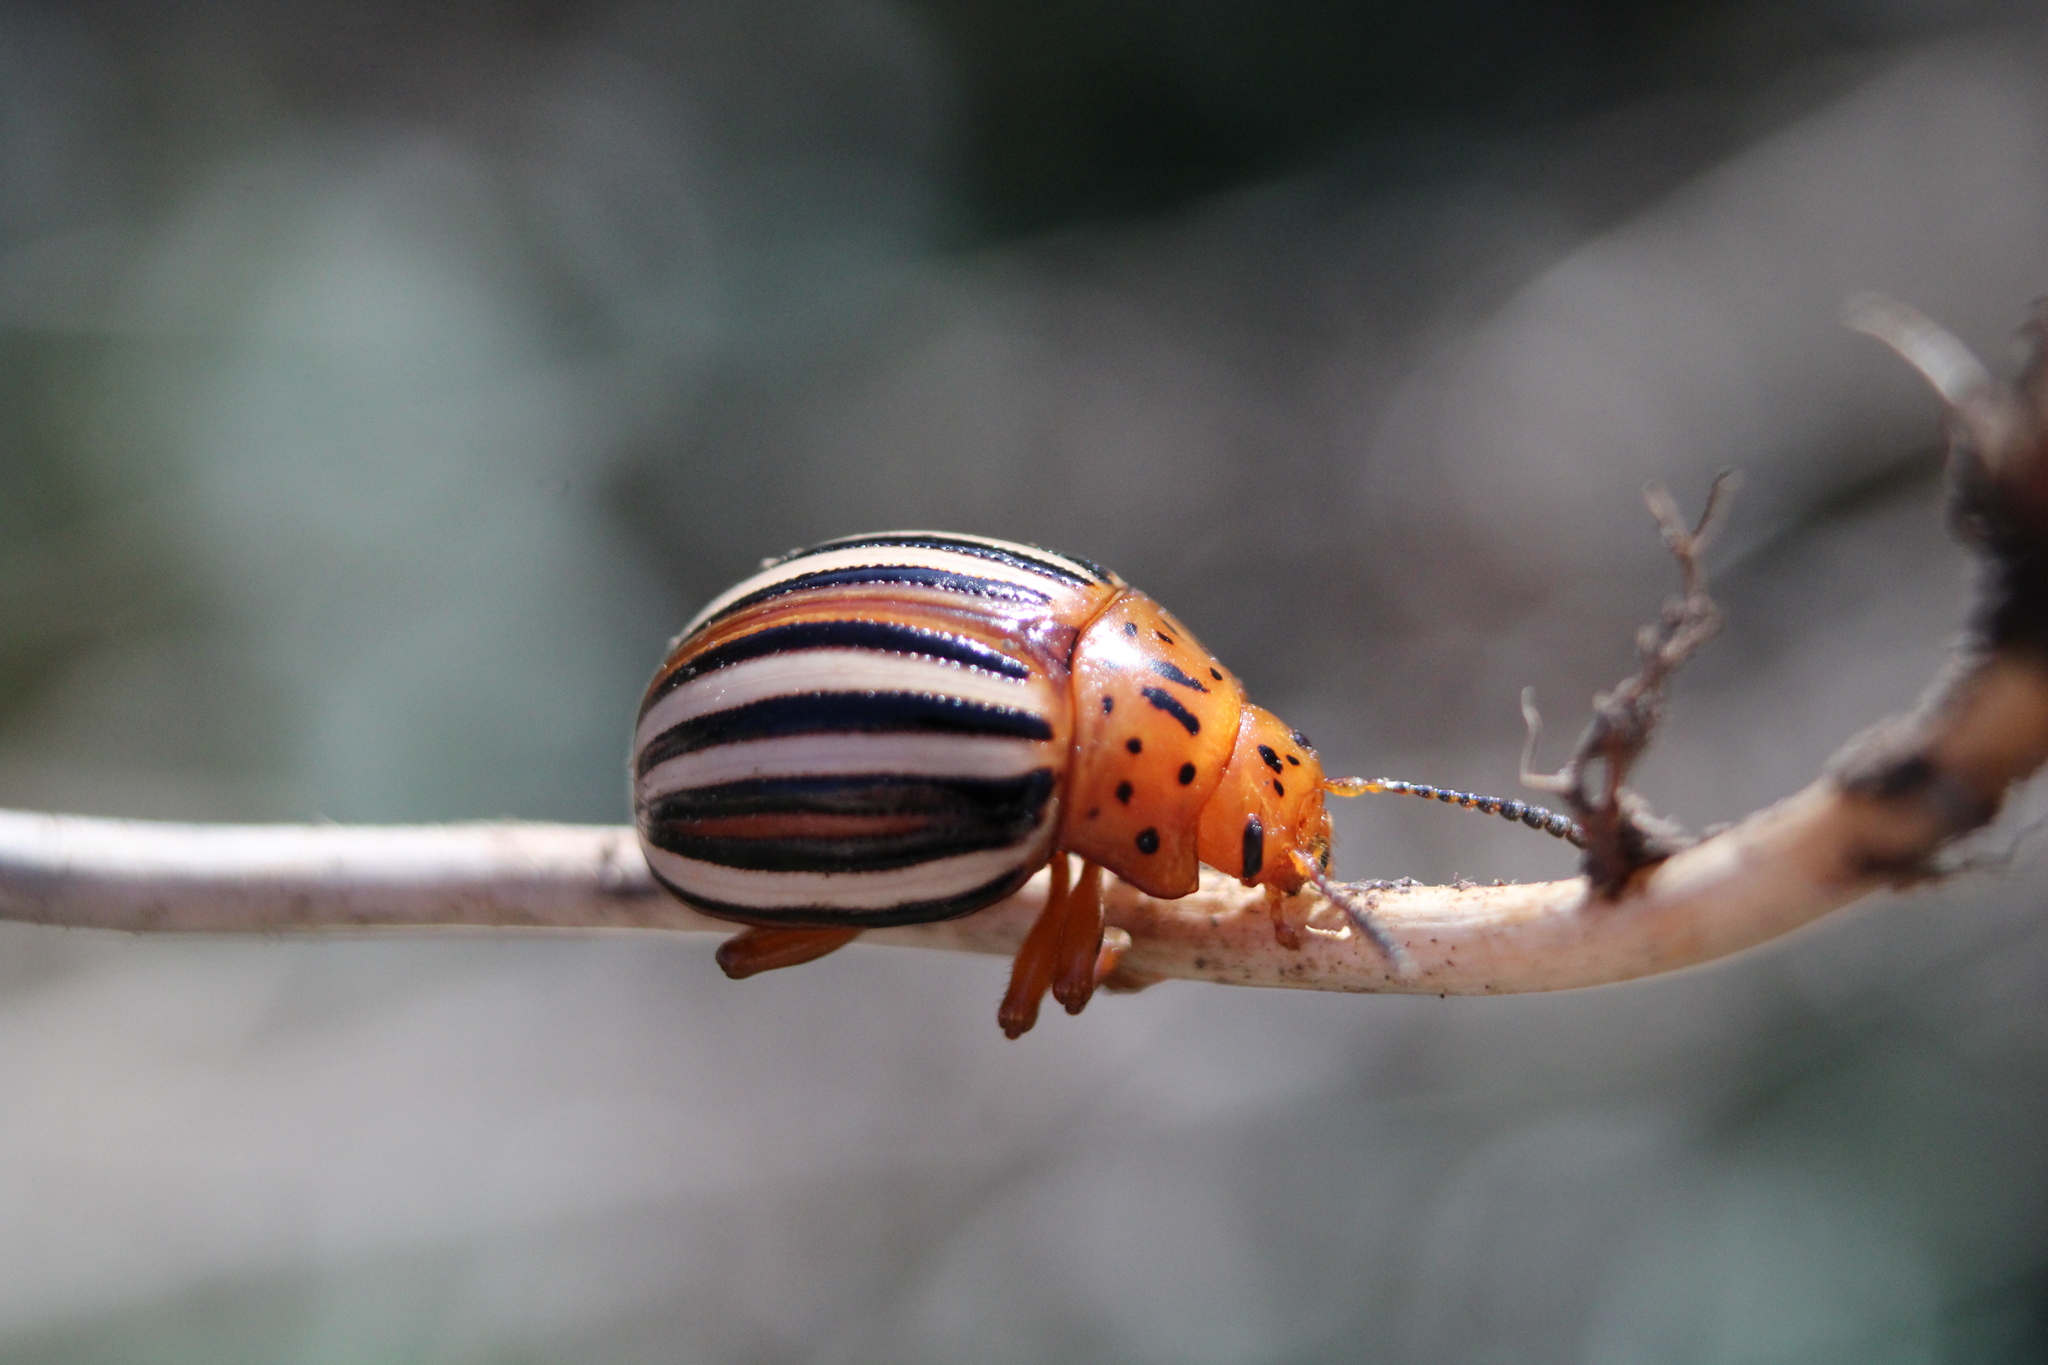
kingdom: Animalia
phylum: Arthropoda
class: Insecta
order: Coleoptera
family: Chrysomelidae
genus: Leptinotarsa
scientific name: Leptinotarsa juncta
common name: False potato beetle
